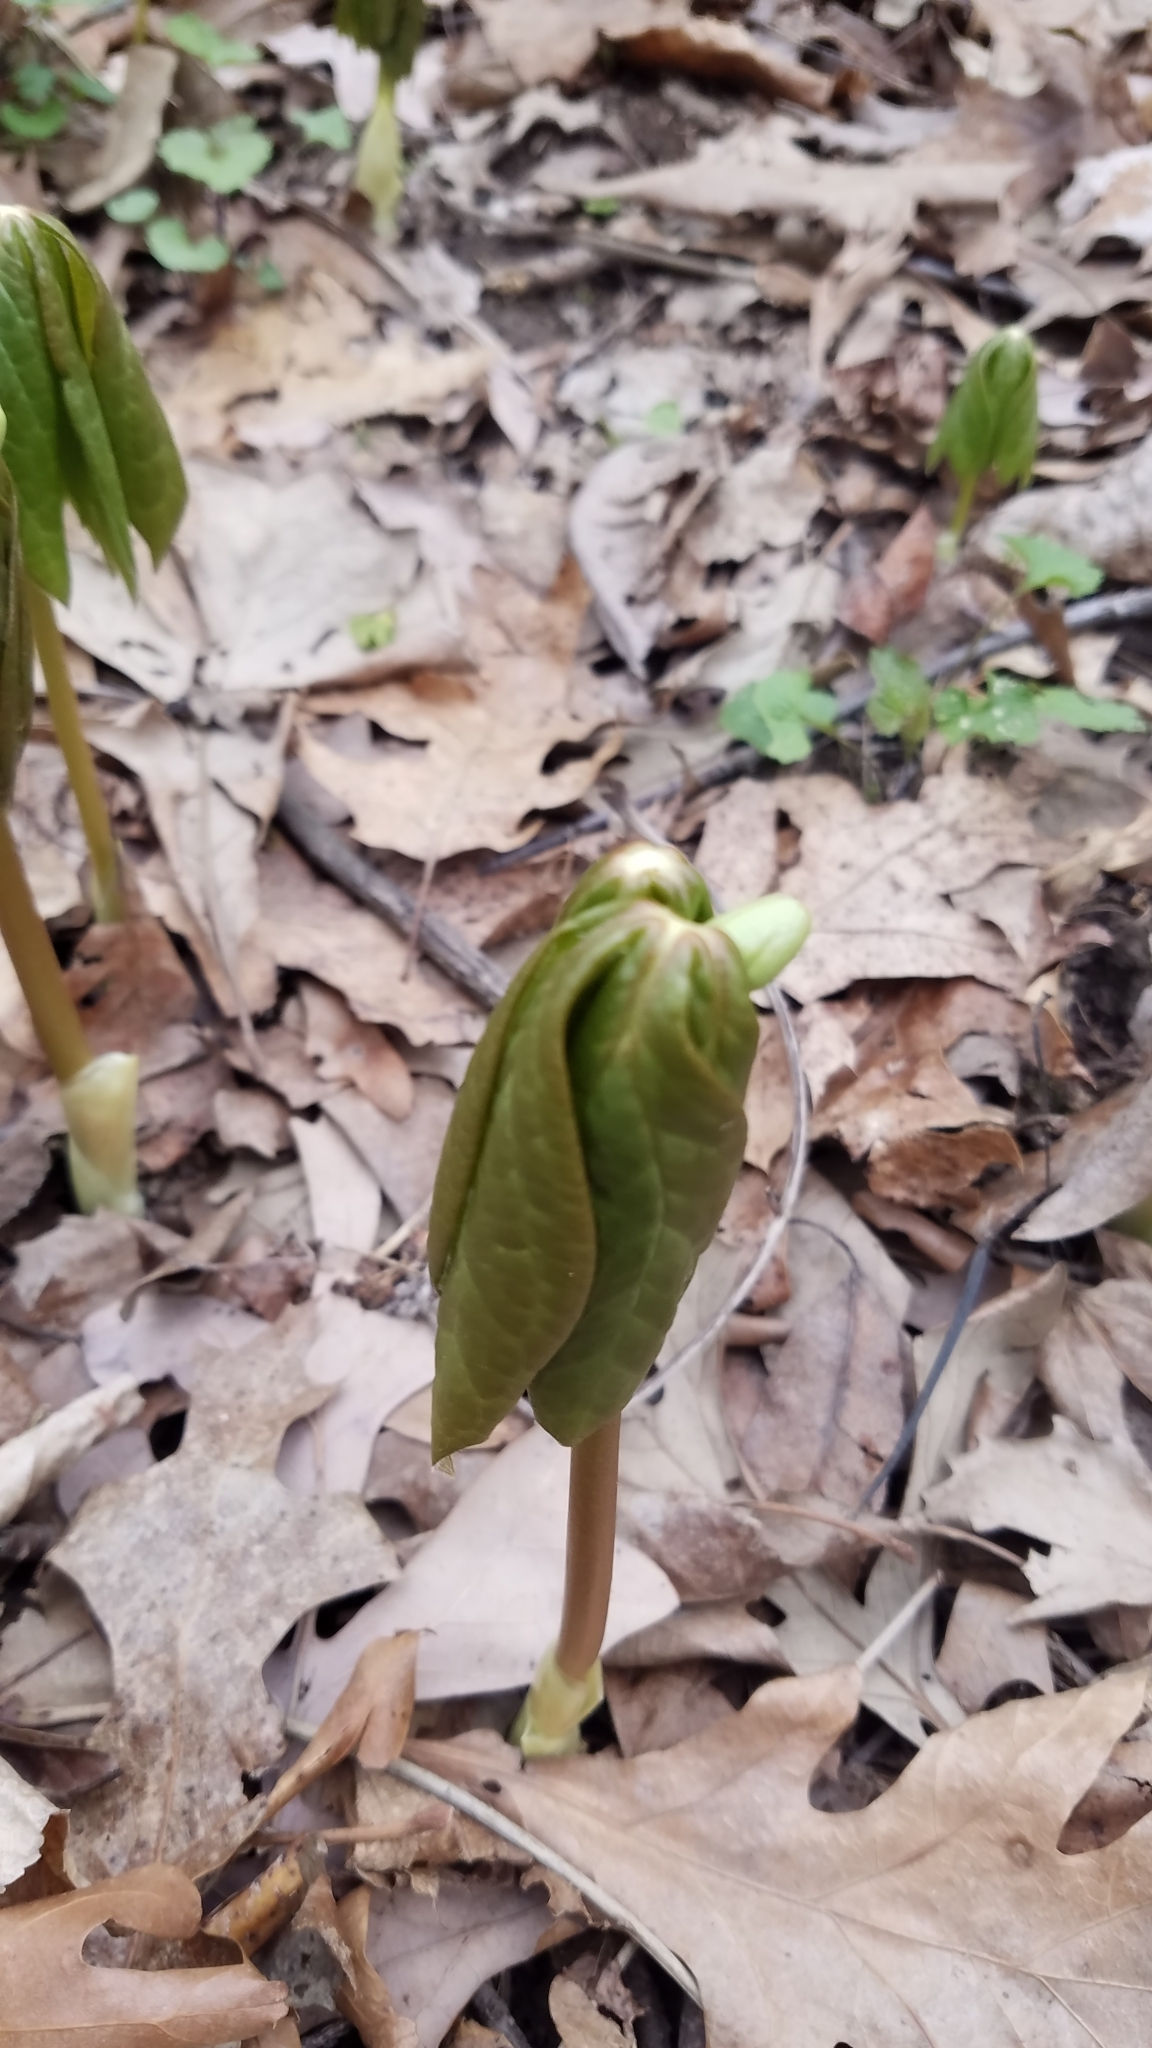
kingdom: Plantae
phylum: Tracheophyta
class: Magnoliopsida
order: Ranunculales
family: Berberidaceae
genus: Podophyllum
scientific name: Podophyllum peltatum
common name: Wild mandrake
